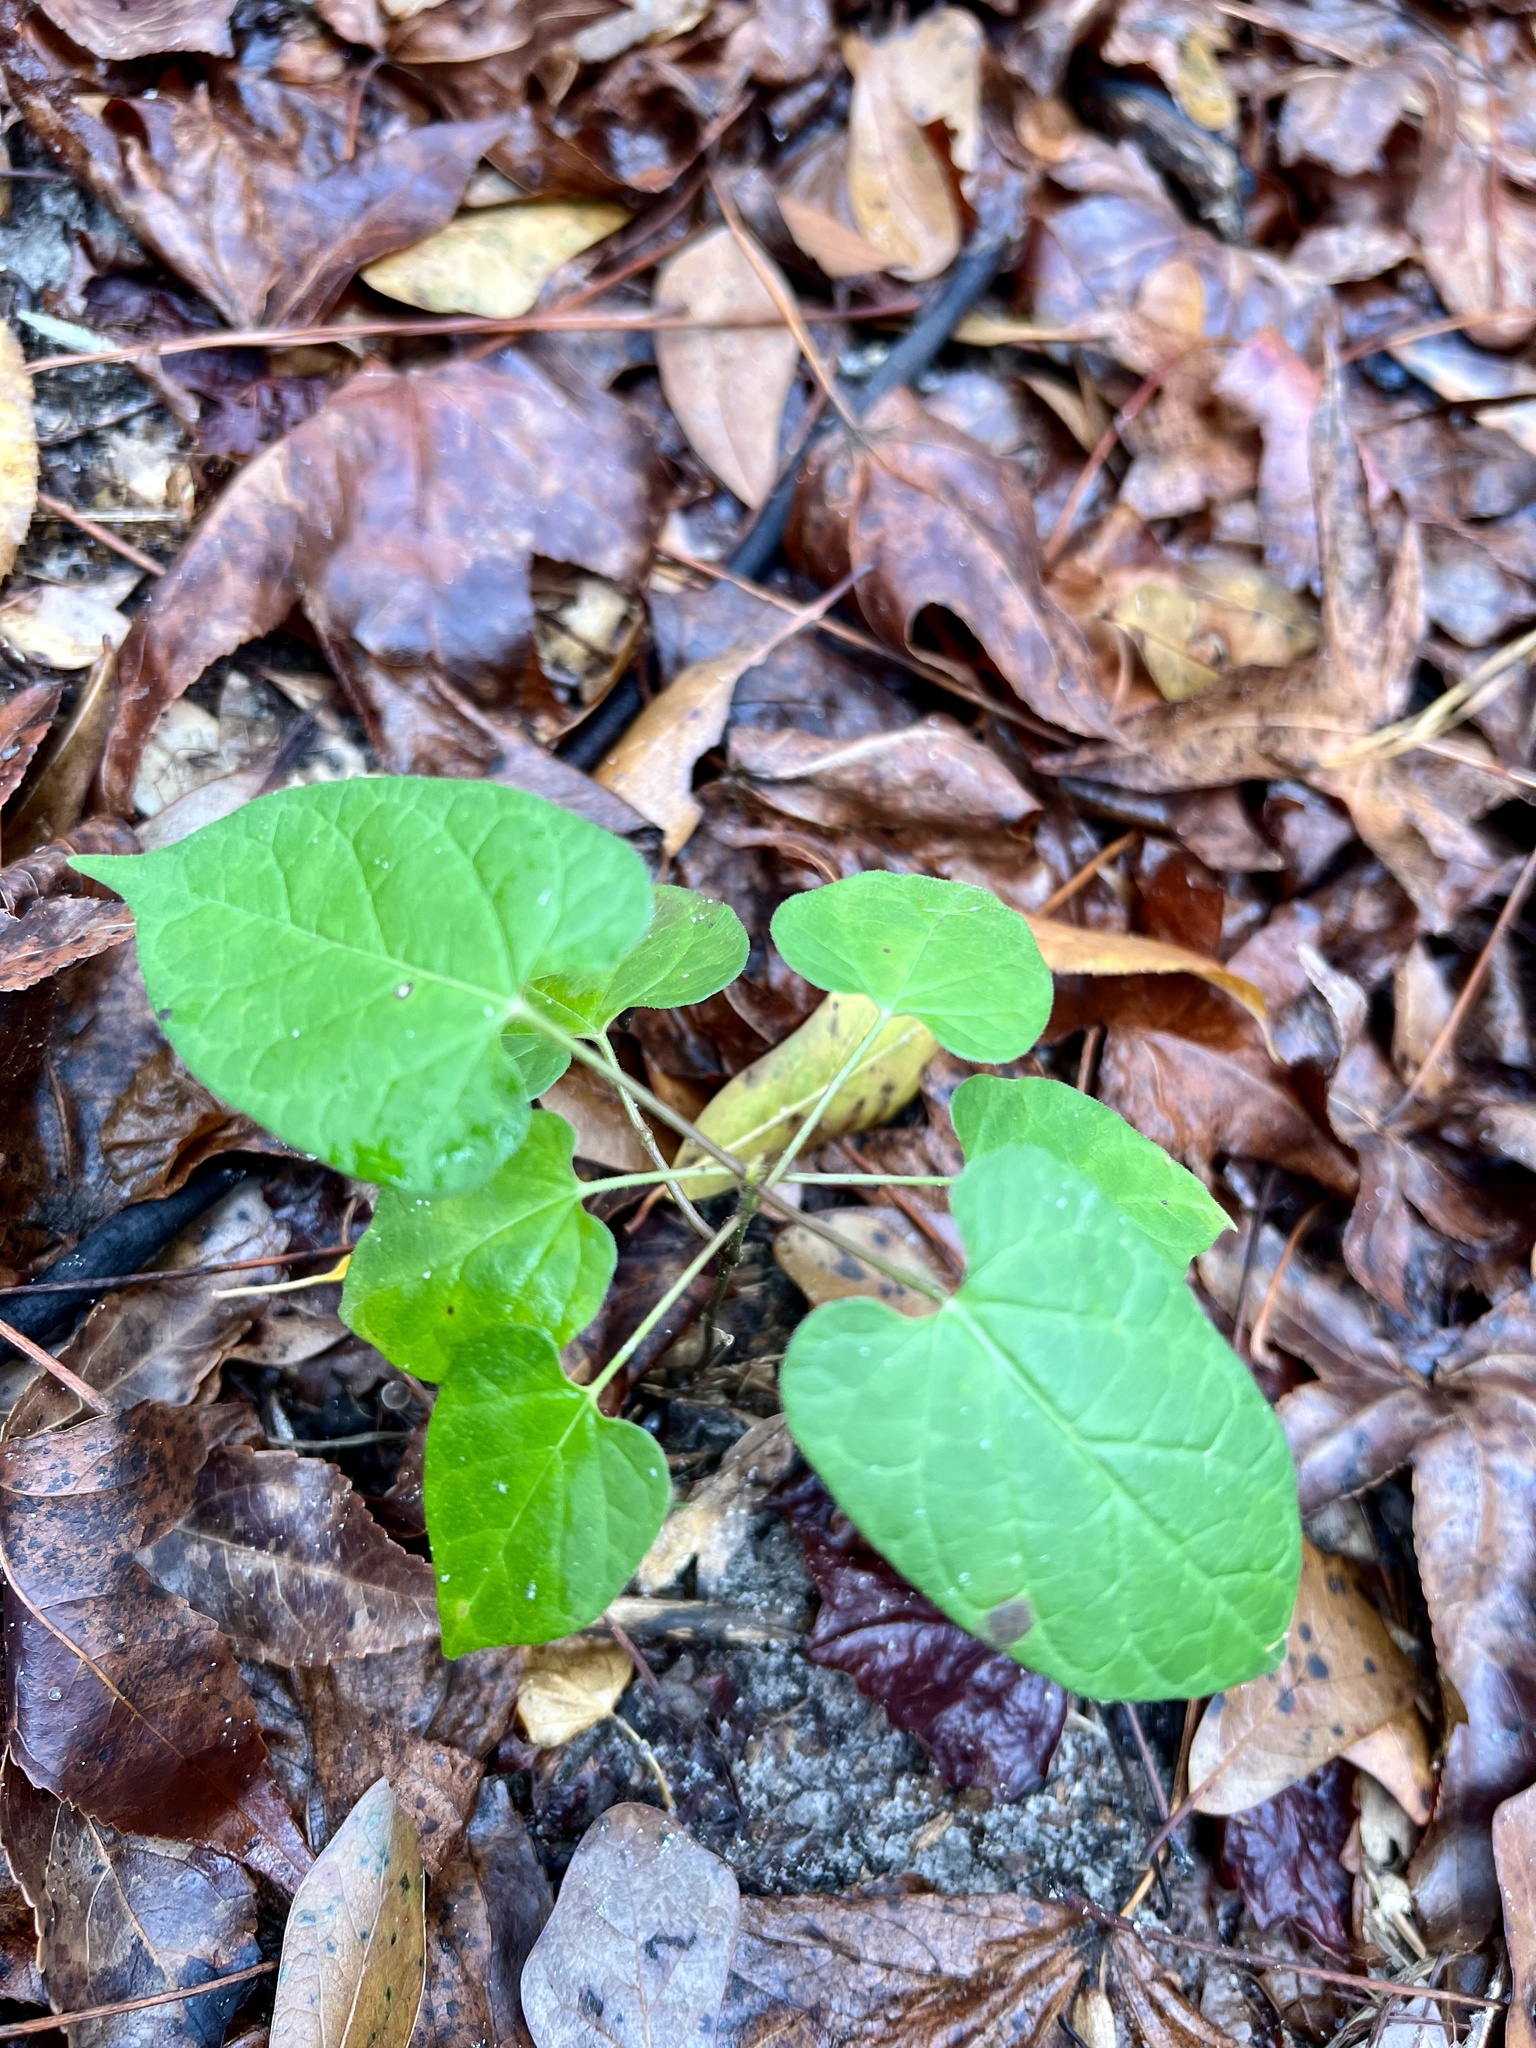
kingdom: Plantae
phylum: Tracheophyta
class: Magnoliopsida
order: Gentianales
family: Apocynaceae
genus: Gonolobus
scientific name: Gonolobus suberosus
